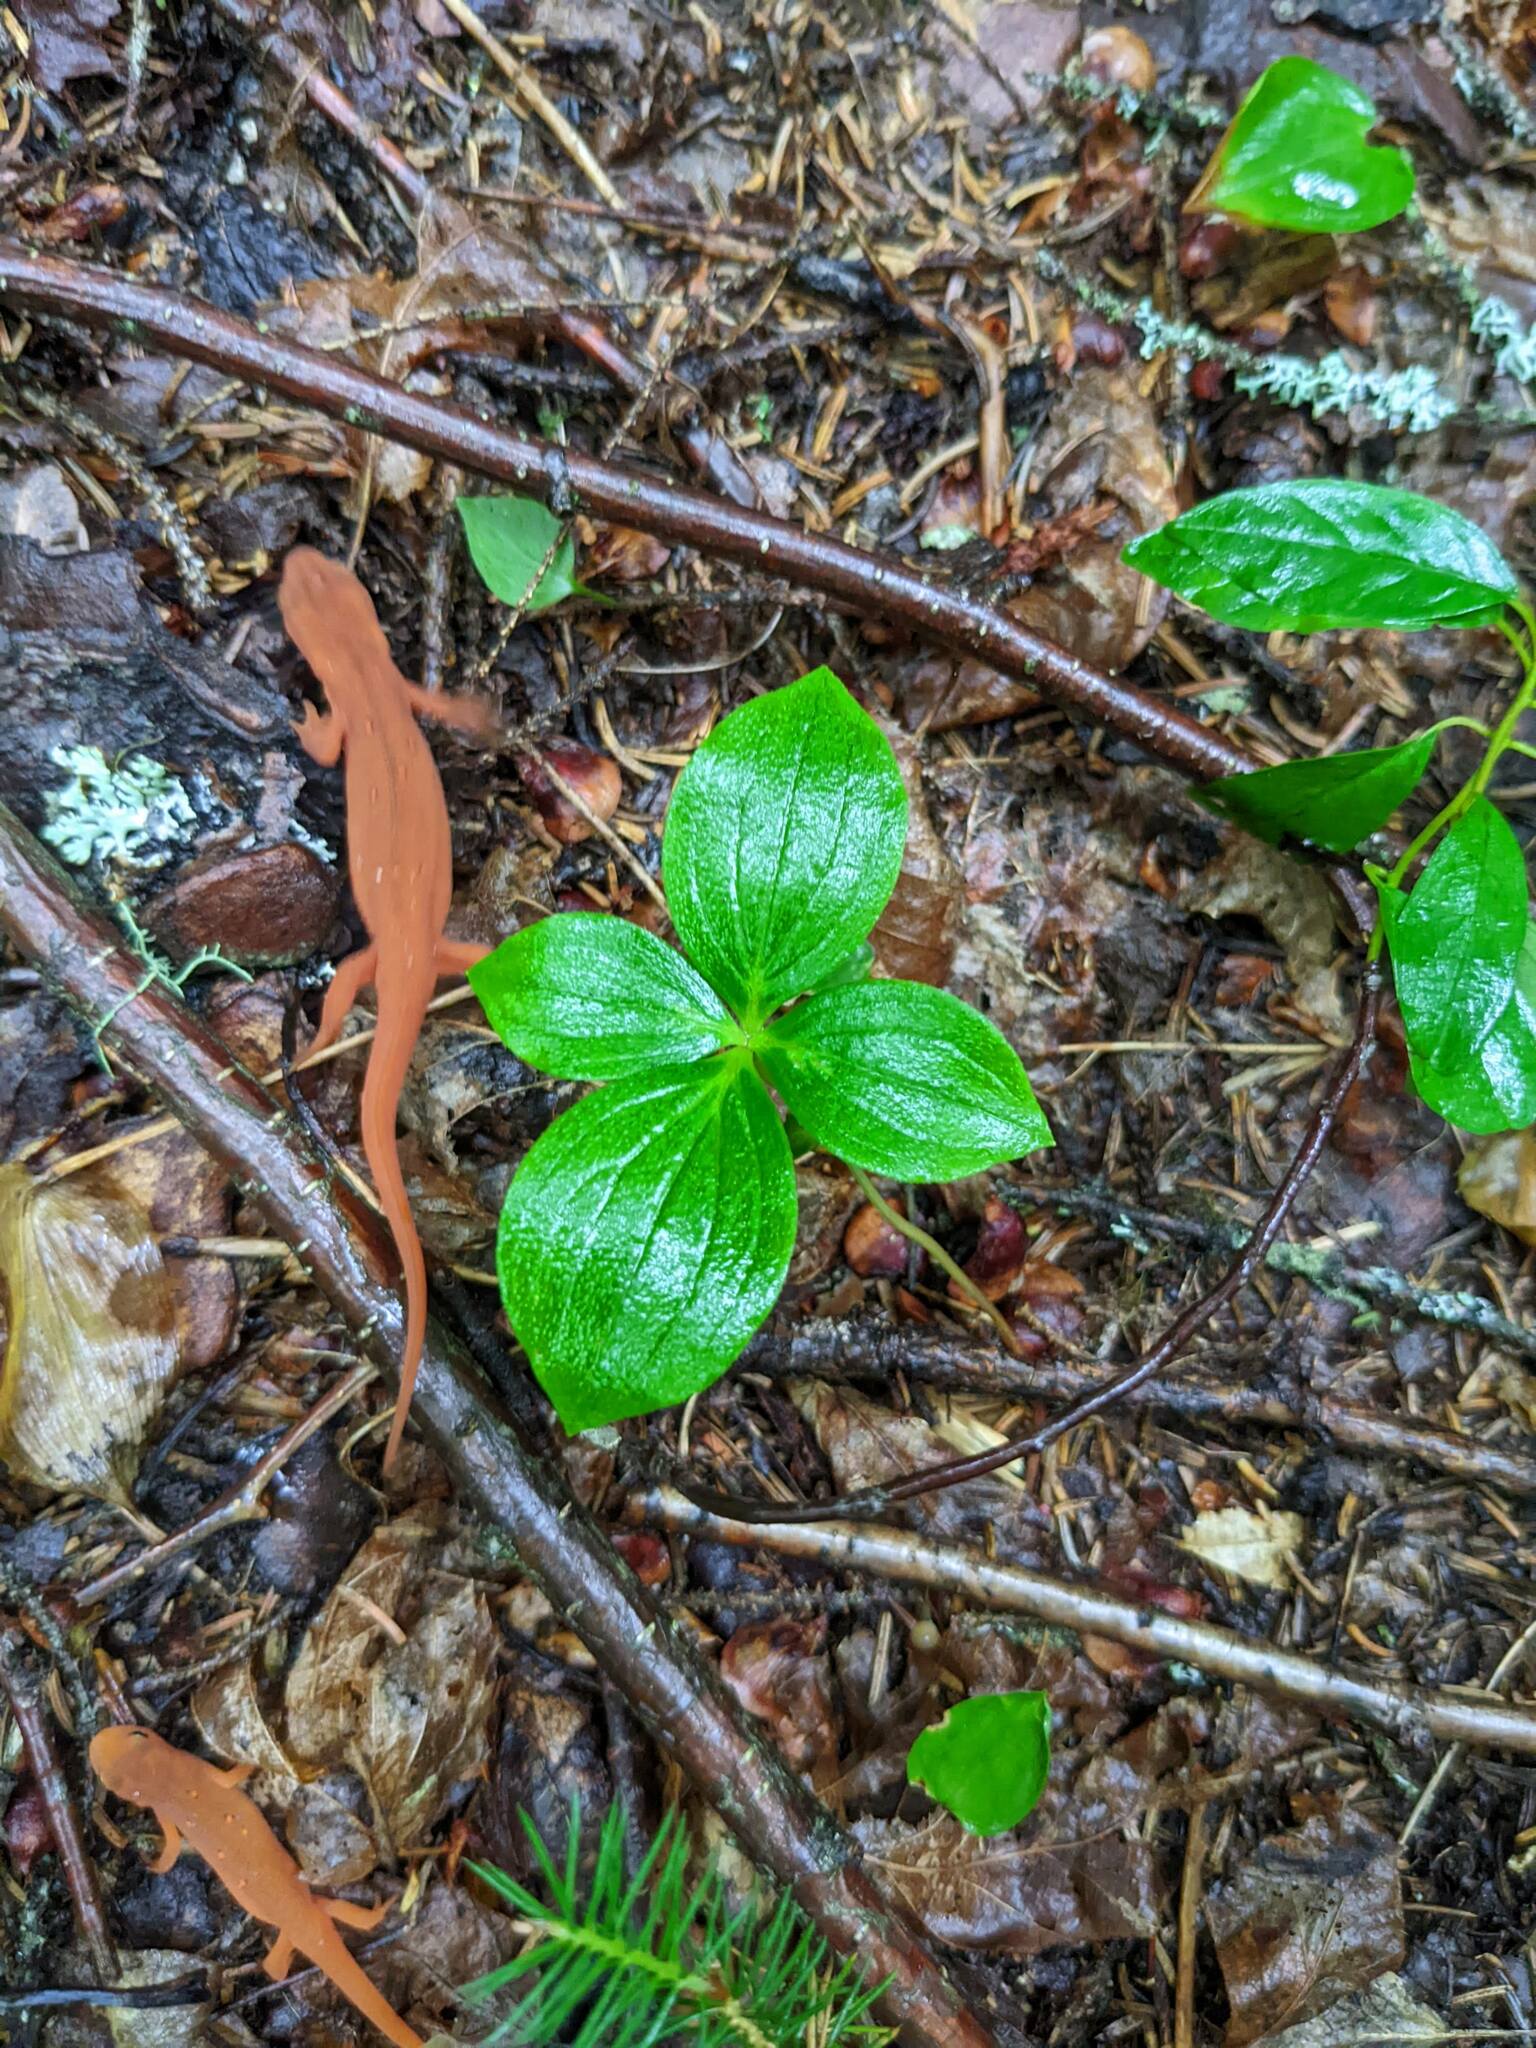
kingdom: Plantae
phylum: Tracheophyta
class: Magnoliopsida
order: Cornales
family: Cornaceae
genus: Cornus
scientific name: Cornus canadensis
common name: Creeping dogwood
